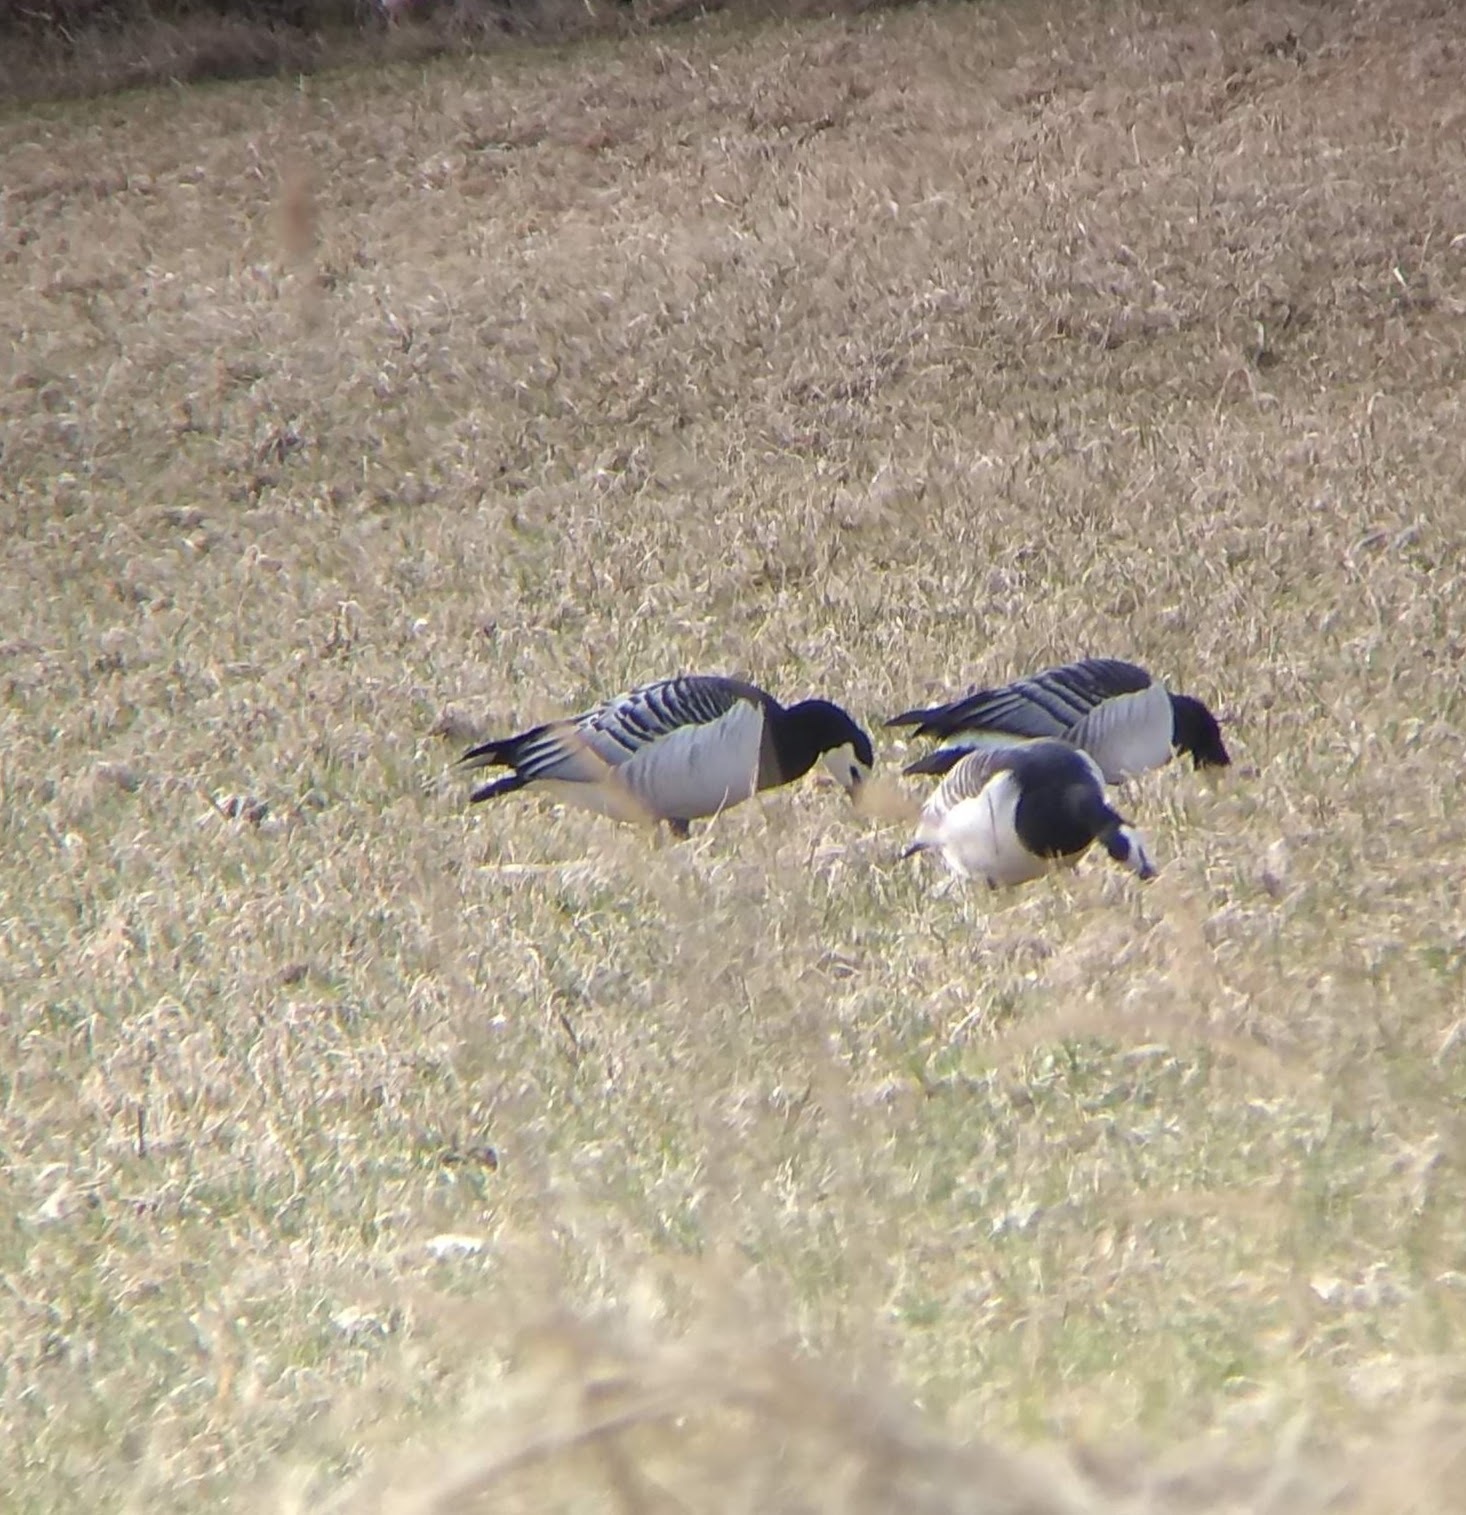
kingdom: Animalia
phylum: Chordata
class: Aves
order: Anseriformes
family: Anatidae
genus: Branta
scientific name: Branta leucopsis
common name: Barnacle goose
